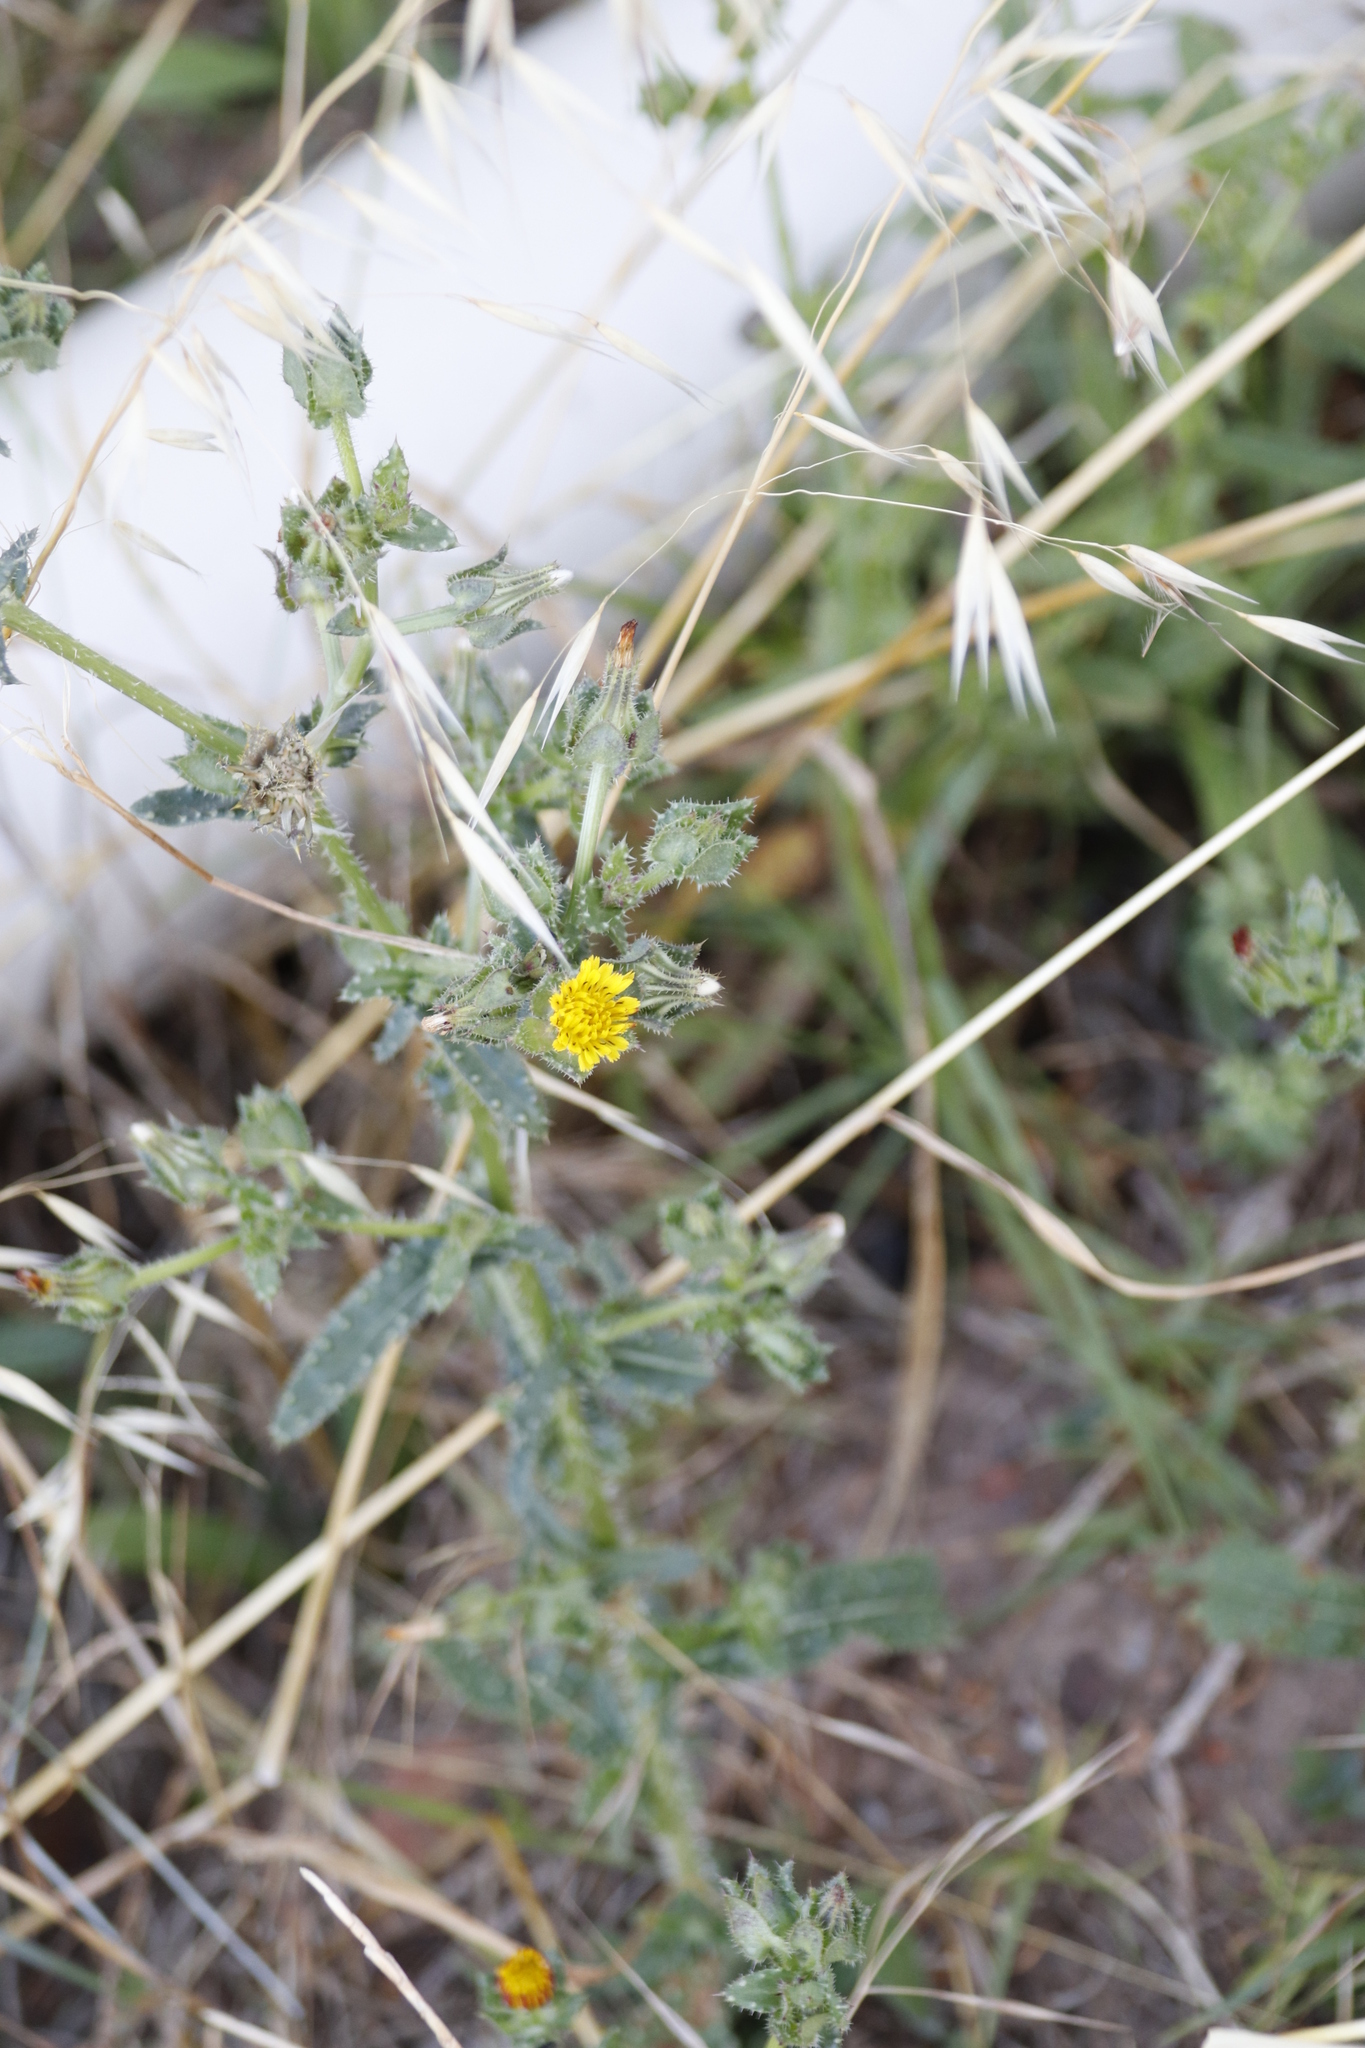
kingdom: Plantae
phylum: Tracheophyta
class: Magnoliopsida
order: Asterales
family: Asteraceae
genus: Helminthotheca
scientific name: Helminthotheca echioides
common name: Ox-tongue
